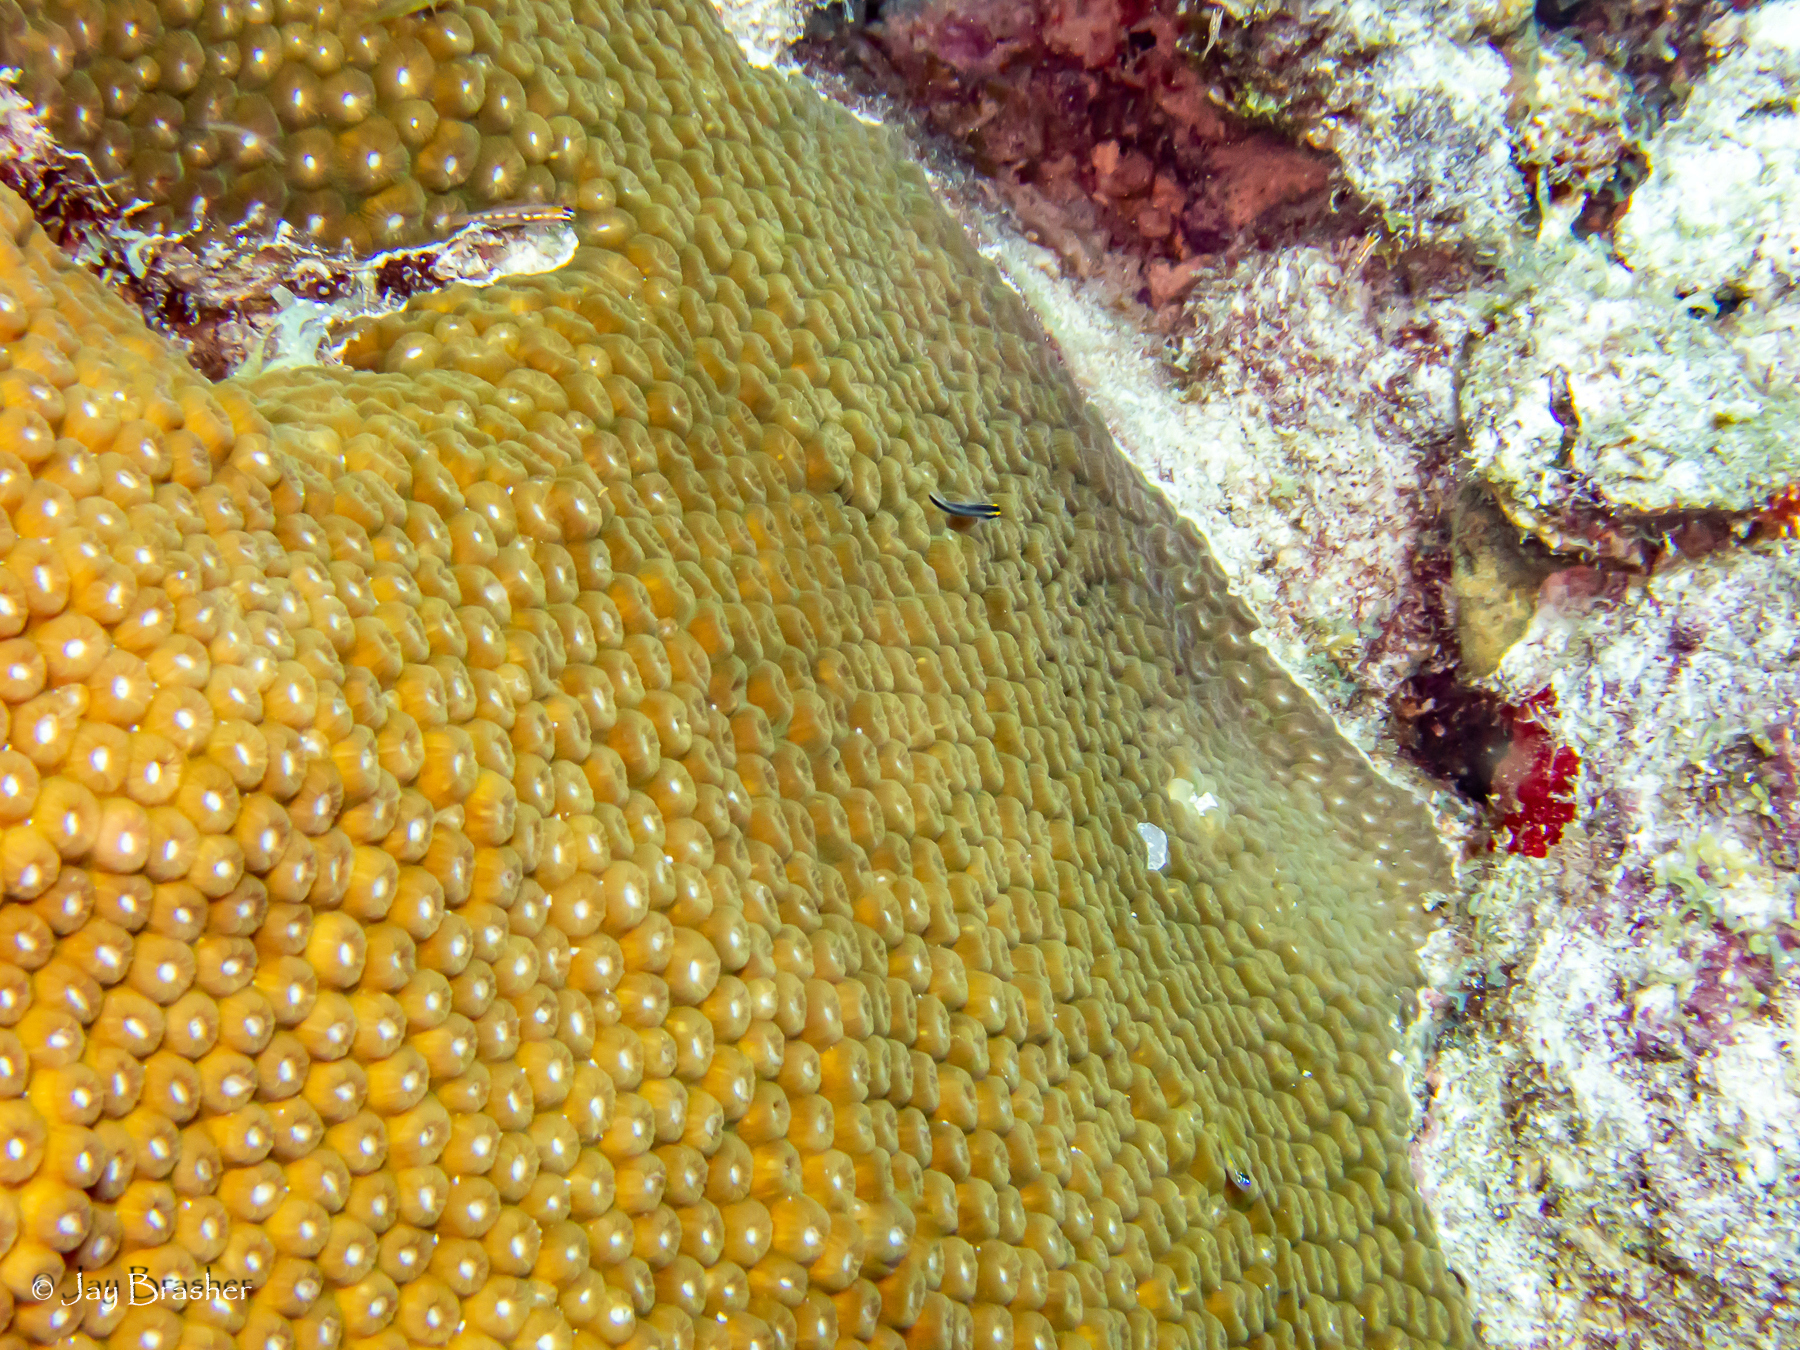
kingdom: Animalia
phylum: Cnidaria
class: Anthozoa
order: Scleractinia
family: Montastraeidae
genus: Montastraea
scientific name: Montastraea cavernosa
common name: Great star coral
